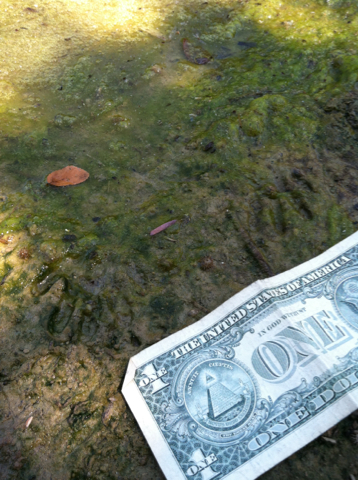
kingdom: Animalia
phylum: Chordata
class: Mammalia
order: Carnivora
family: Procyonidae
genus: Procyon
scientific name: Procyon lotor
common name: Raccoon
